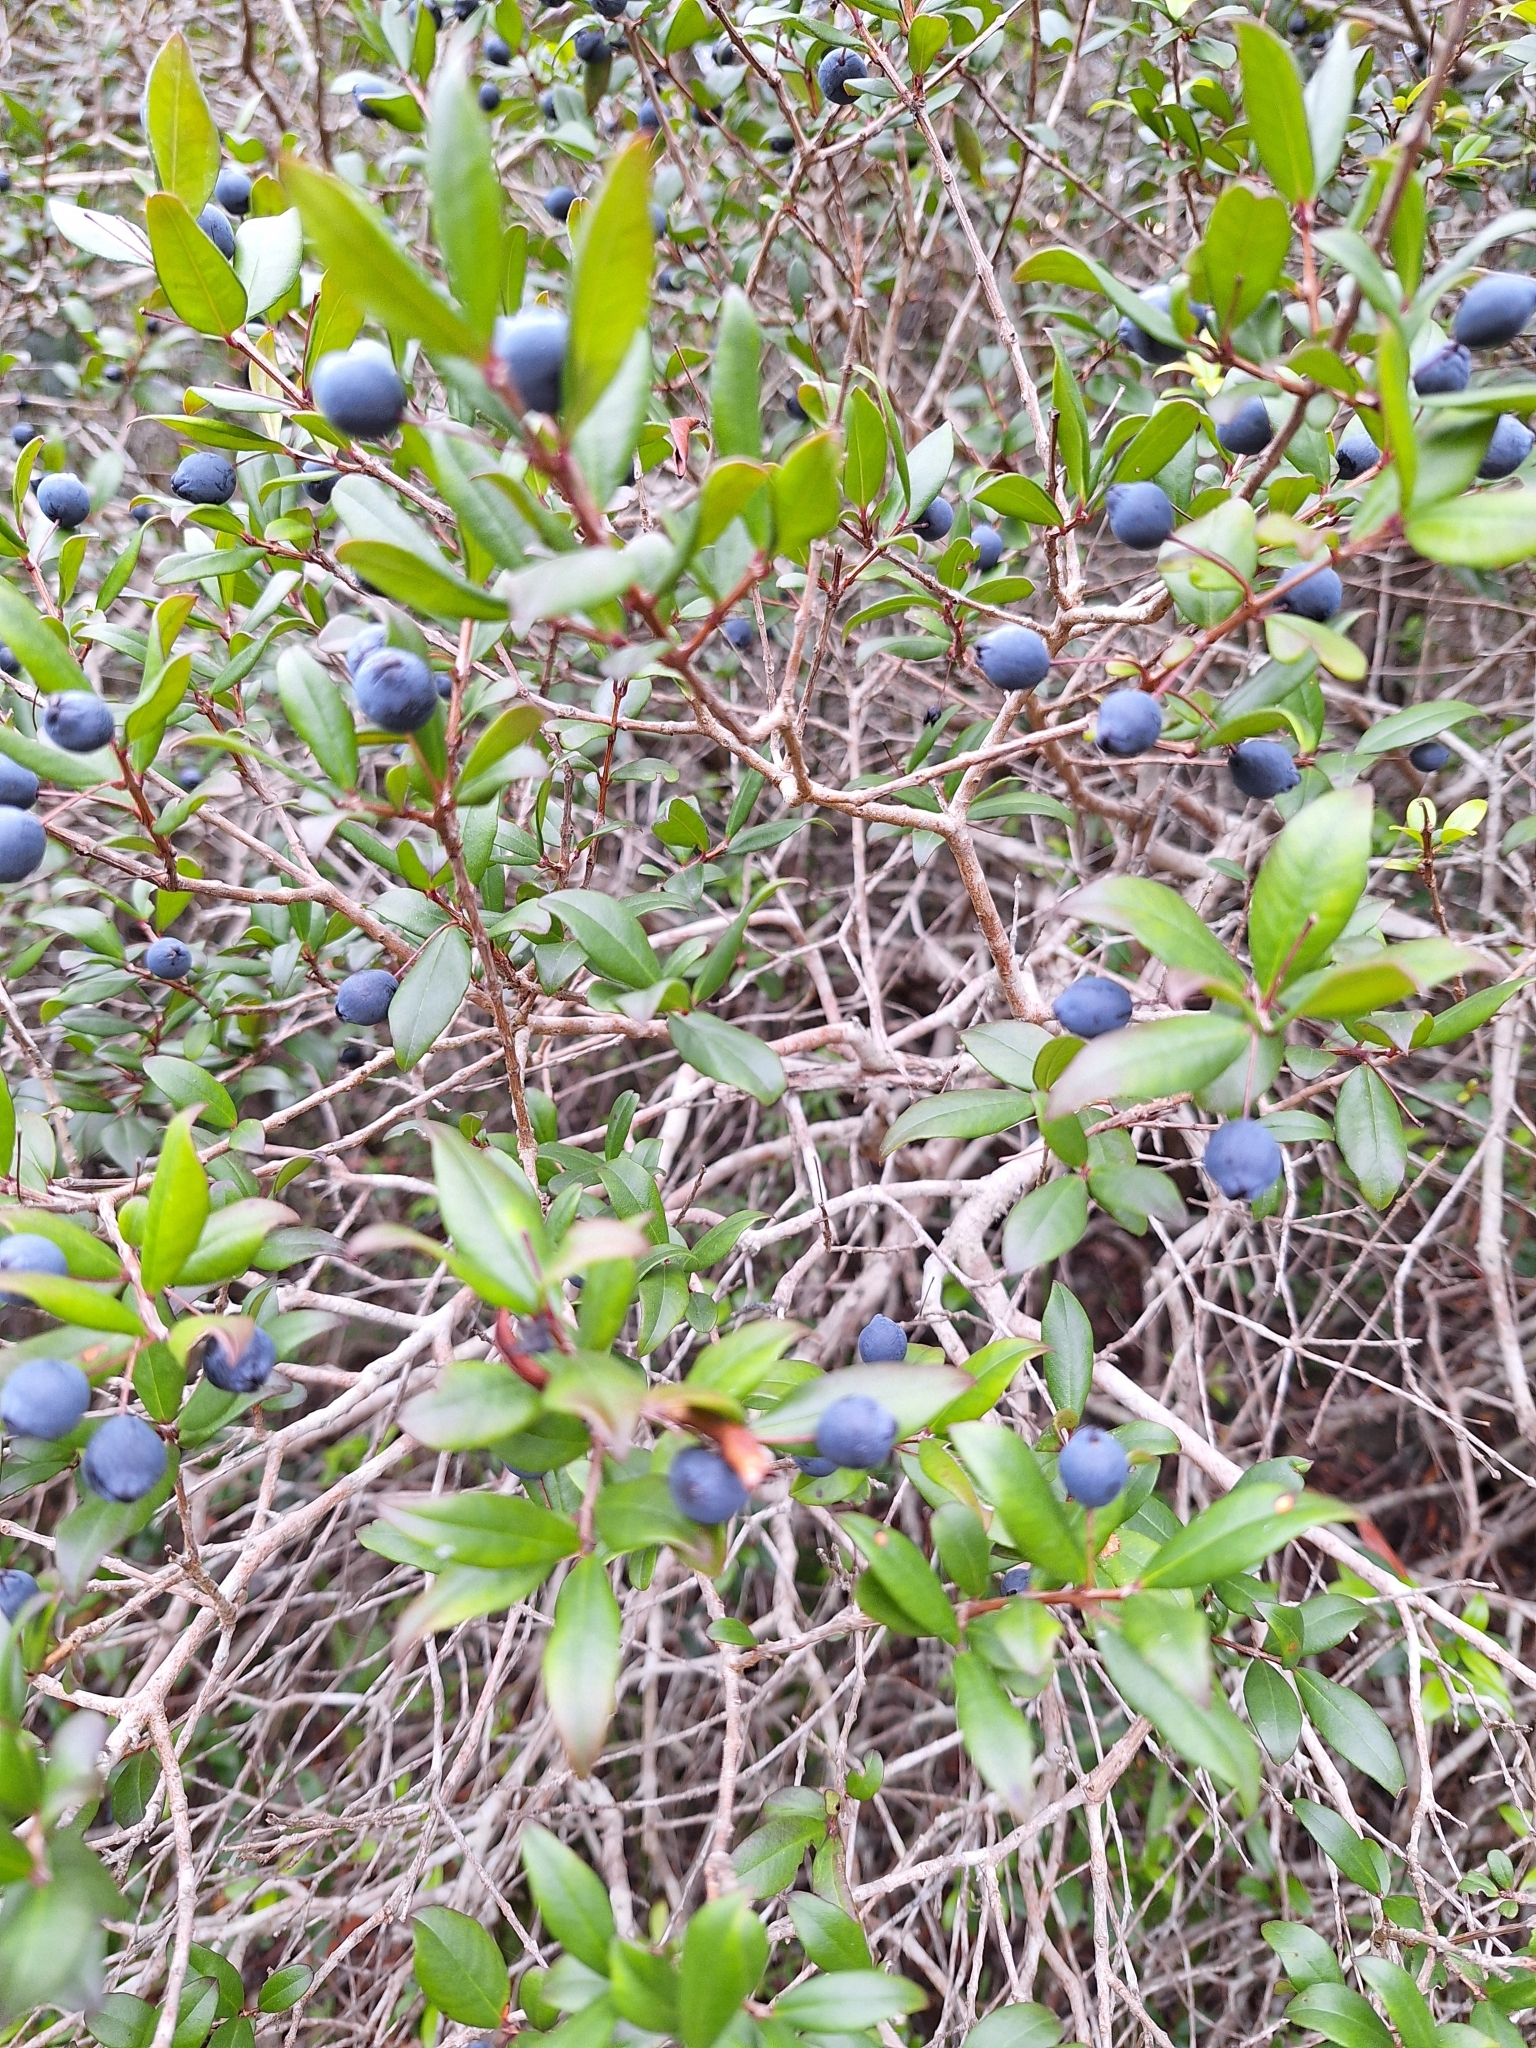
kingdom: Plantae
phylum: Tracheophyta
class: Magnoliopsida
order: Myrtales
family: Myrtaceae
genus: Myrtus
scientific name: Myrtus communis
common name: Myrtle
